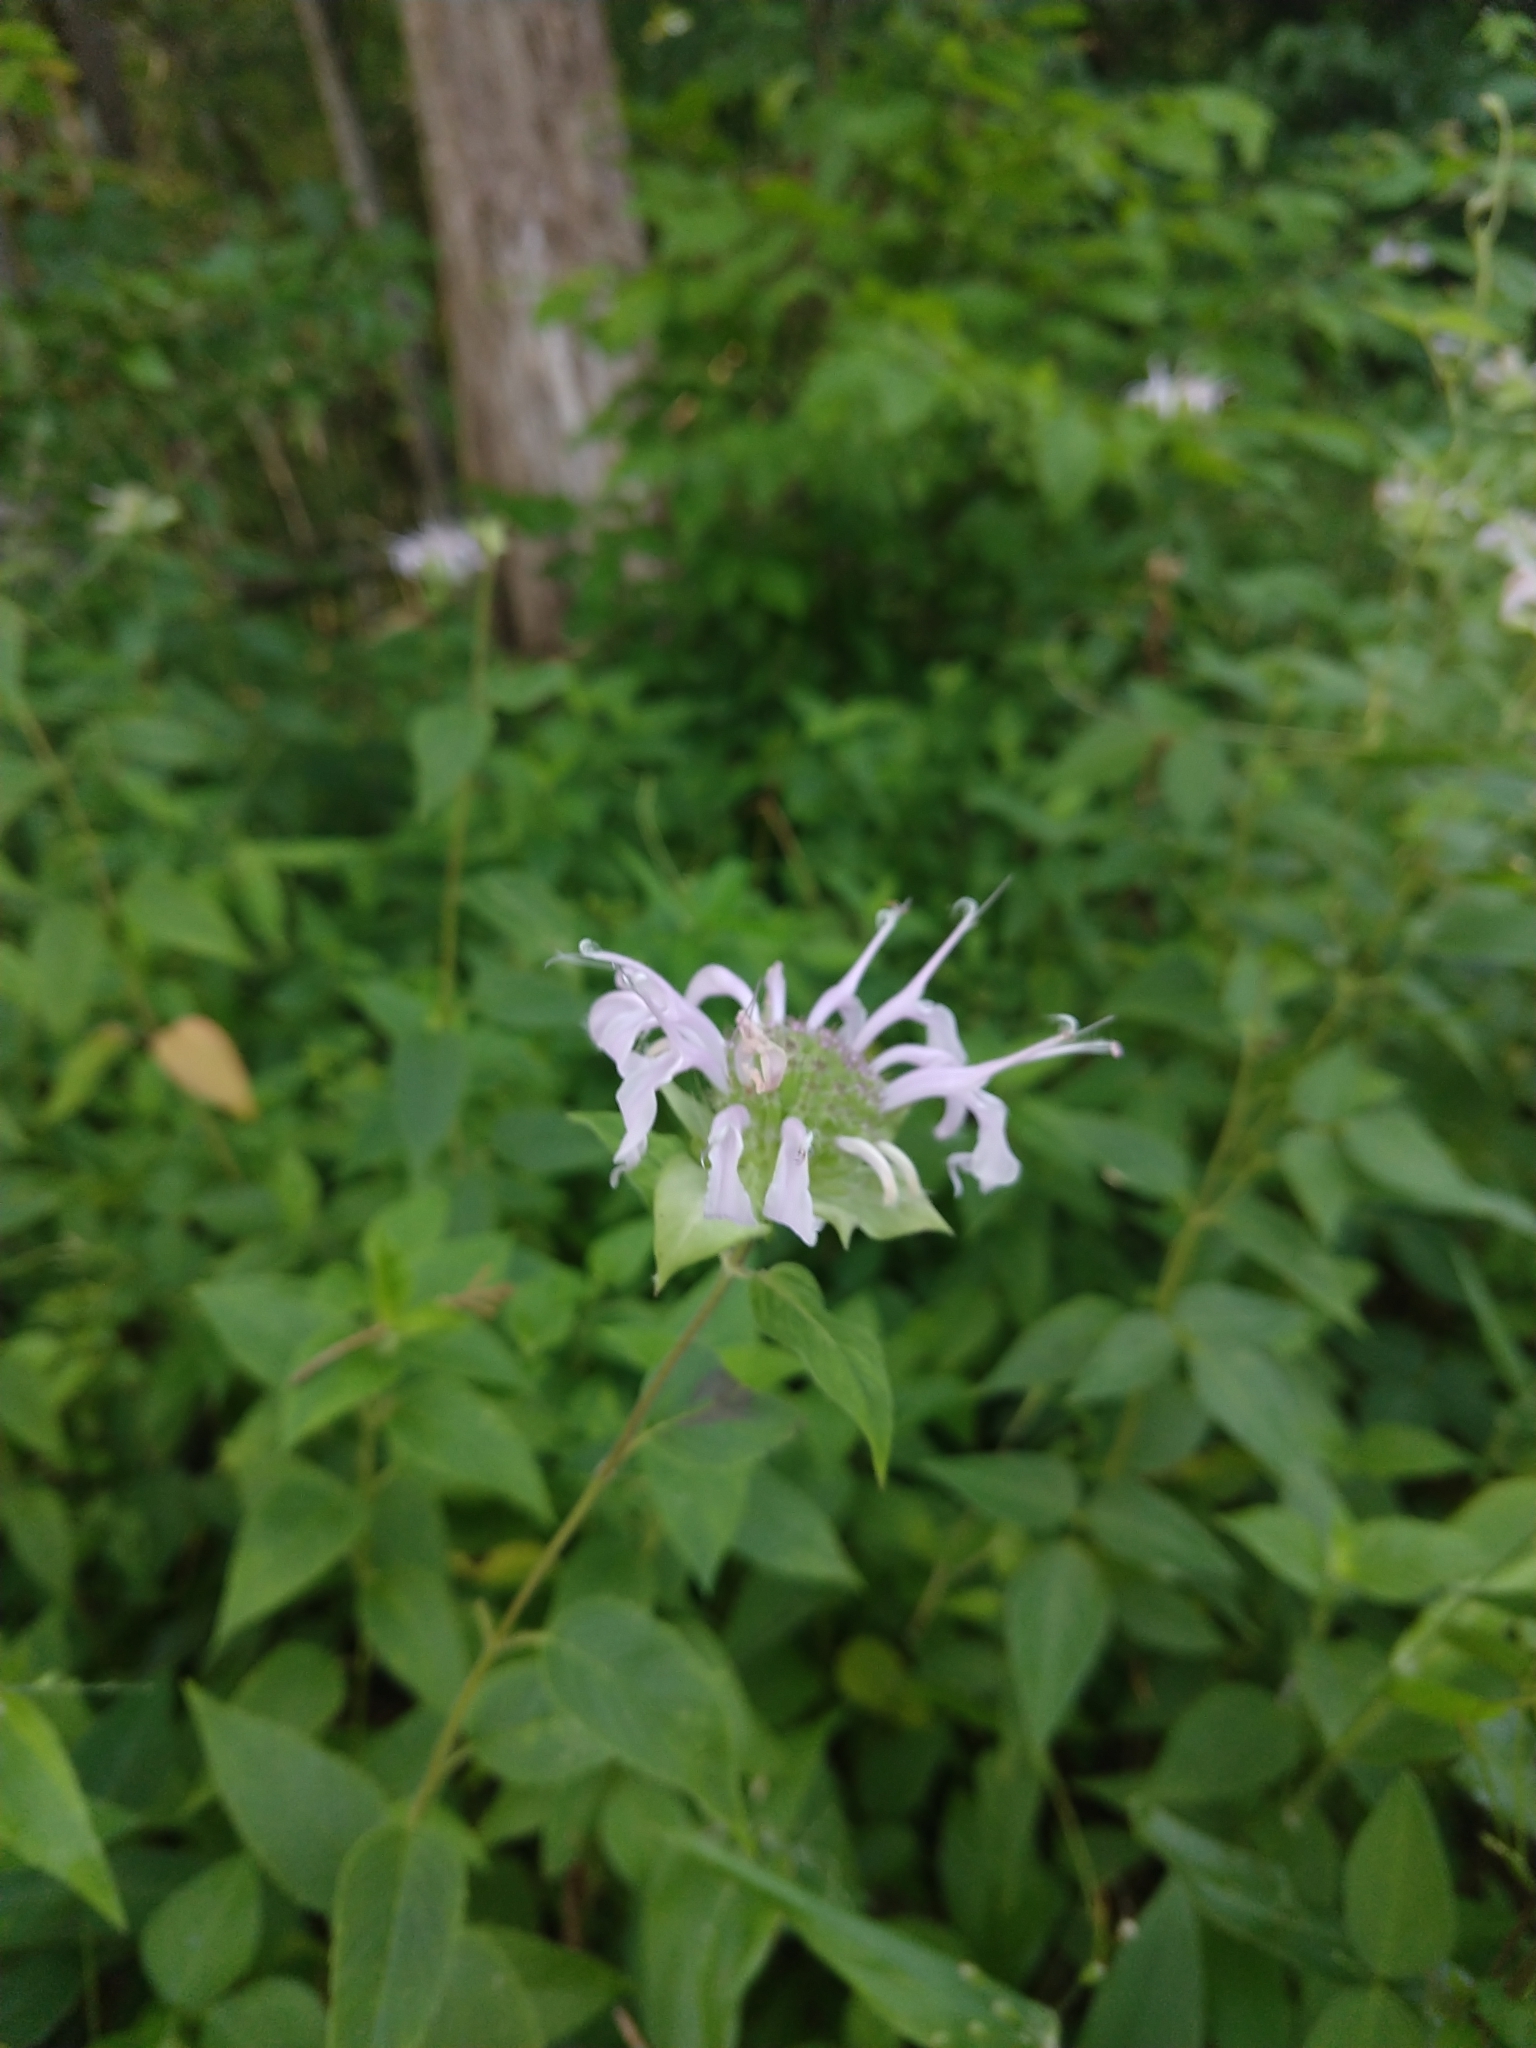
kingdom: Plantae
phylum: Tracheophyta
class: Magnoliopsida
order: Lamiales
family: Lamiaceae
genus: Monarda
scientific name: Monarda fistulosa
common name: Purple beebalm
